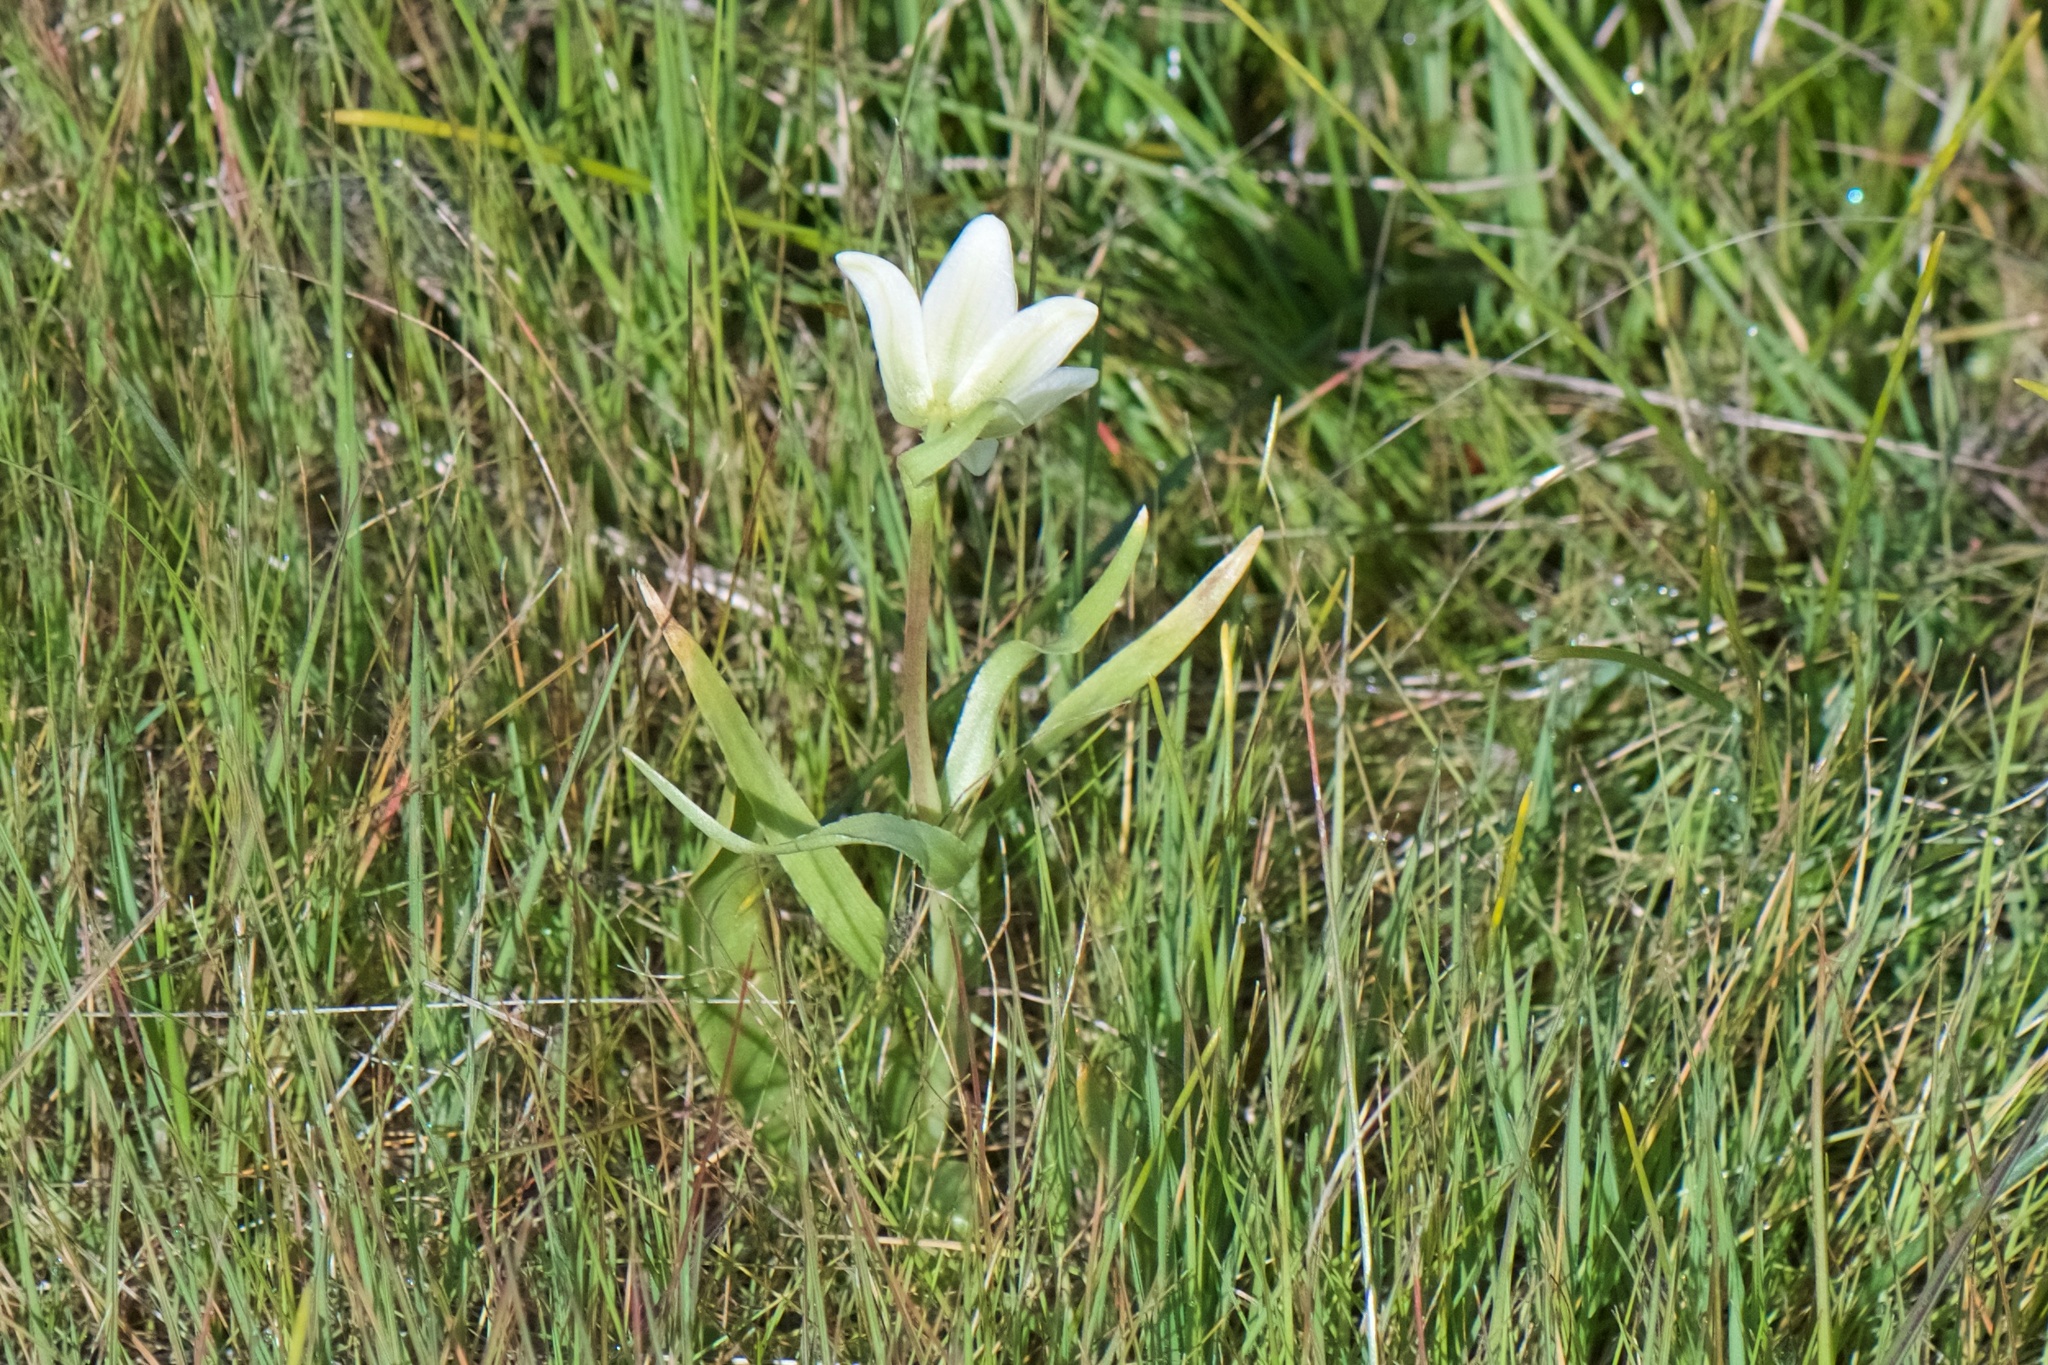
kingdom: Plantae
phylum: Tracheophyta
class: Liliopsida
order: Liliales
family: Liliaceae
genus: Fritillaria
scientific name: Fritillaria liliacea
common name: Fragrant fritillary
